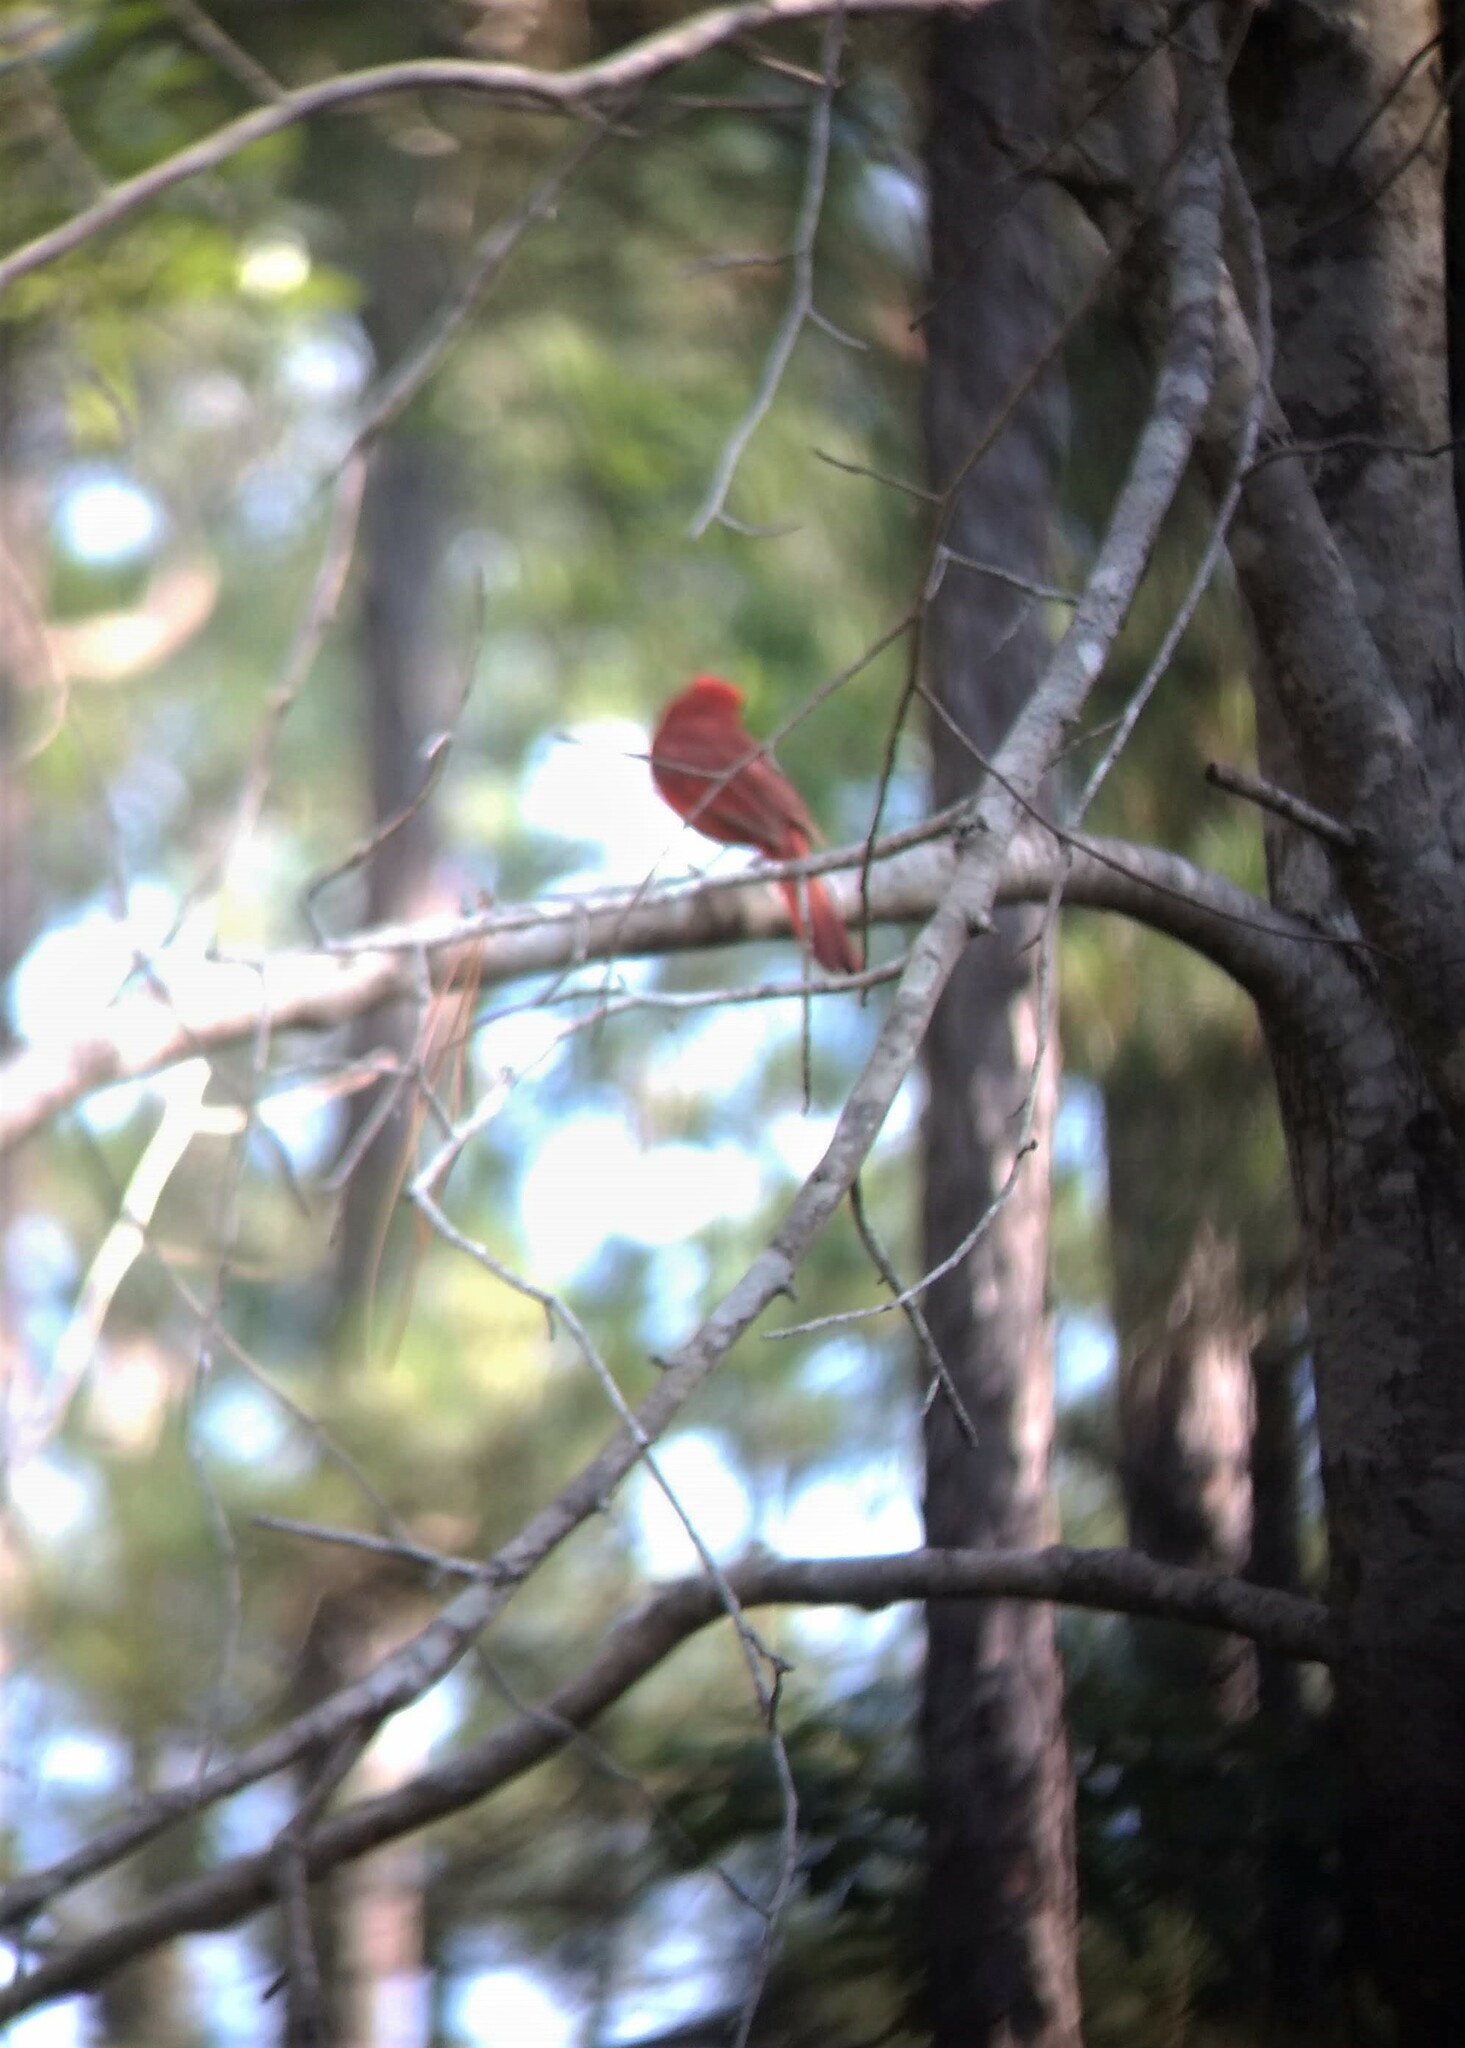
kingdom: Animalia
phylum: Chordata
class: Aves
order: Passeriformes
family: Cardinalidae
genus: Cardinalis
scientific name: Cardinalis cardinalis
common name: Northern cardinal
